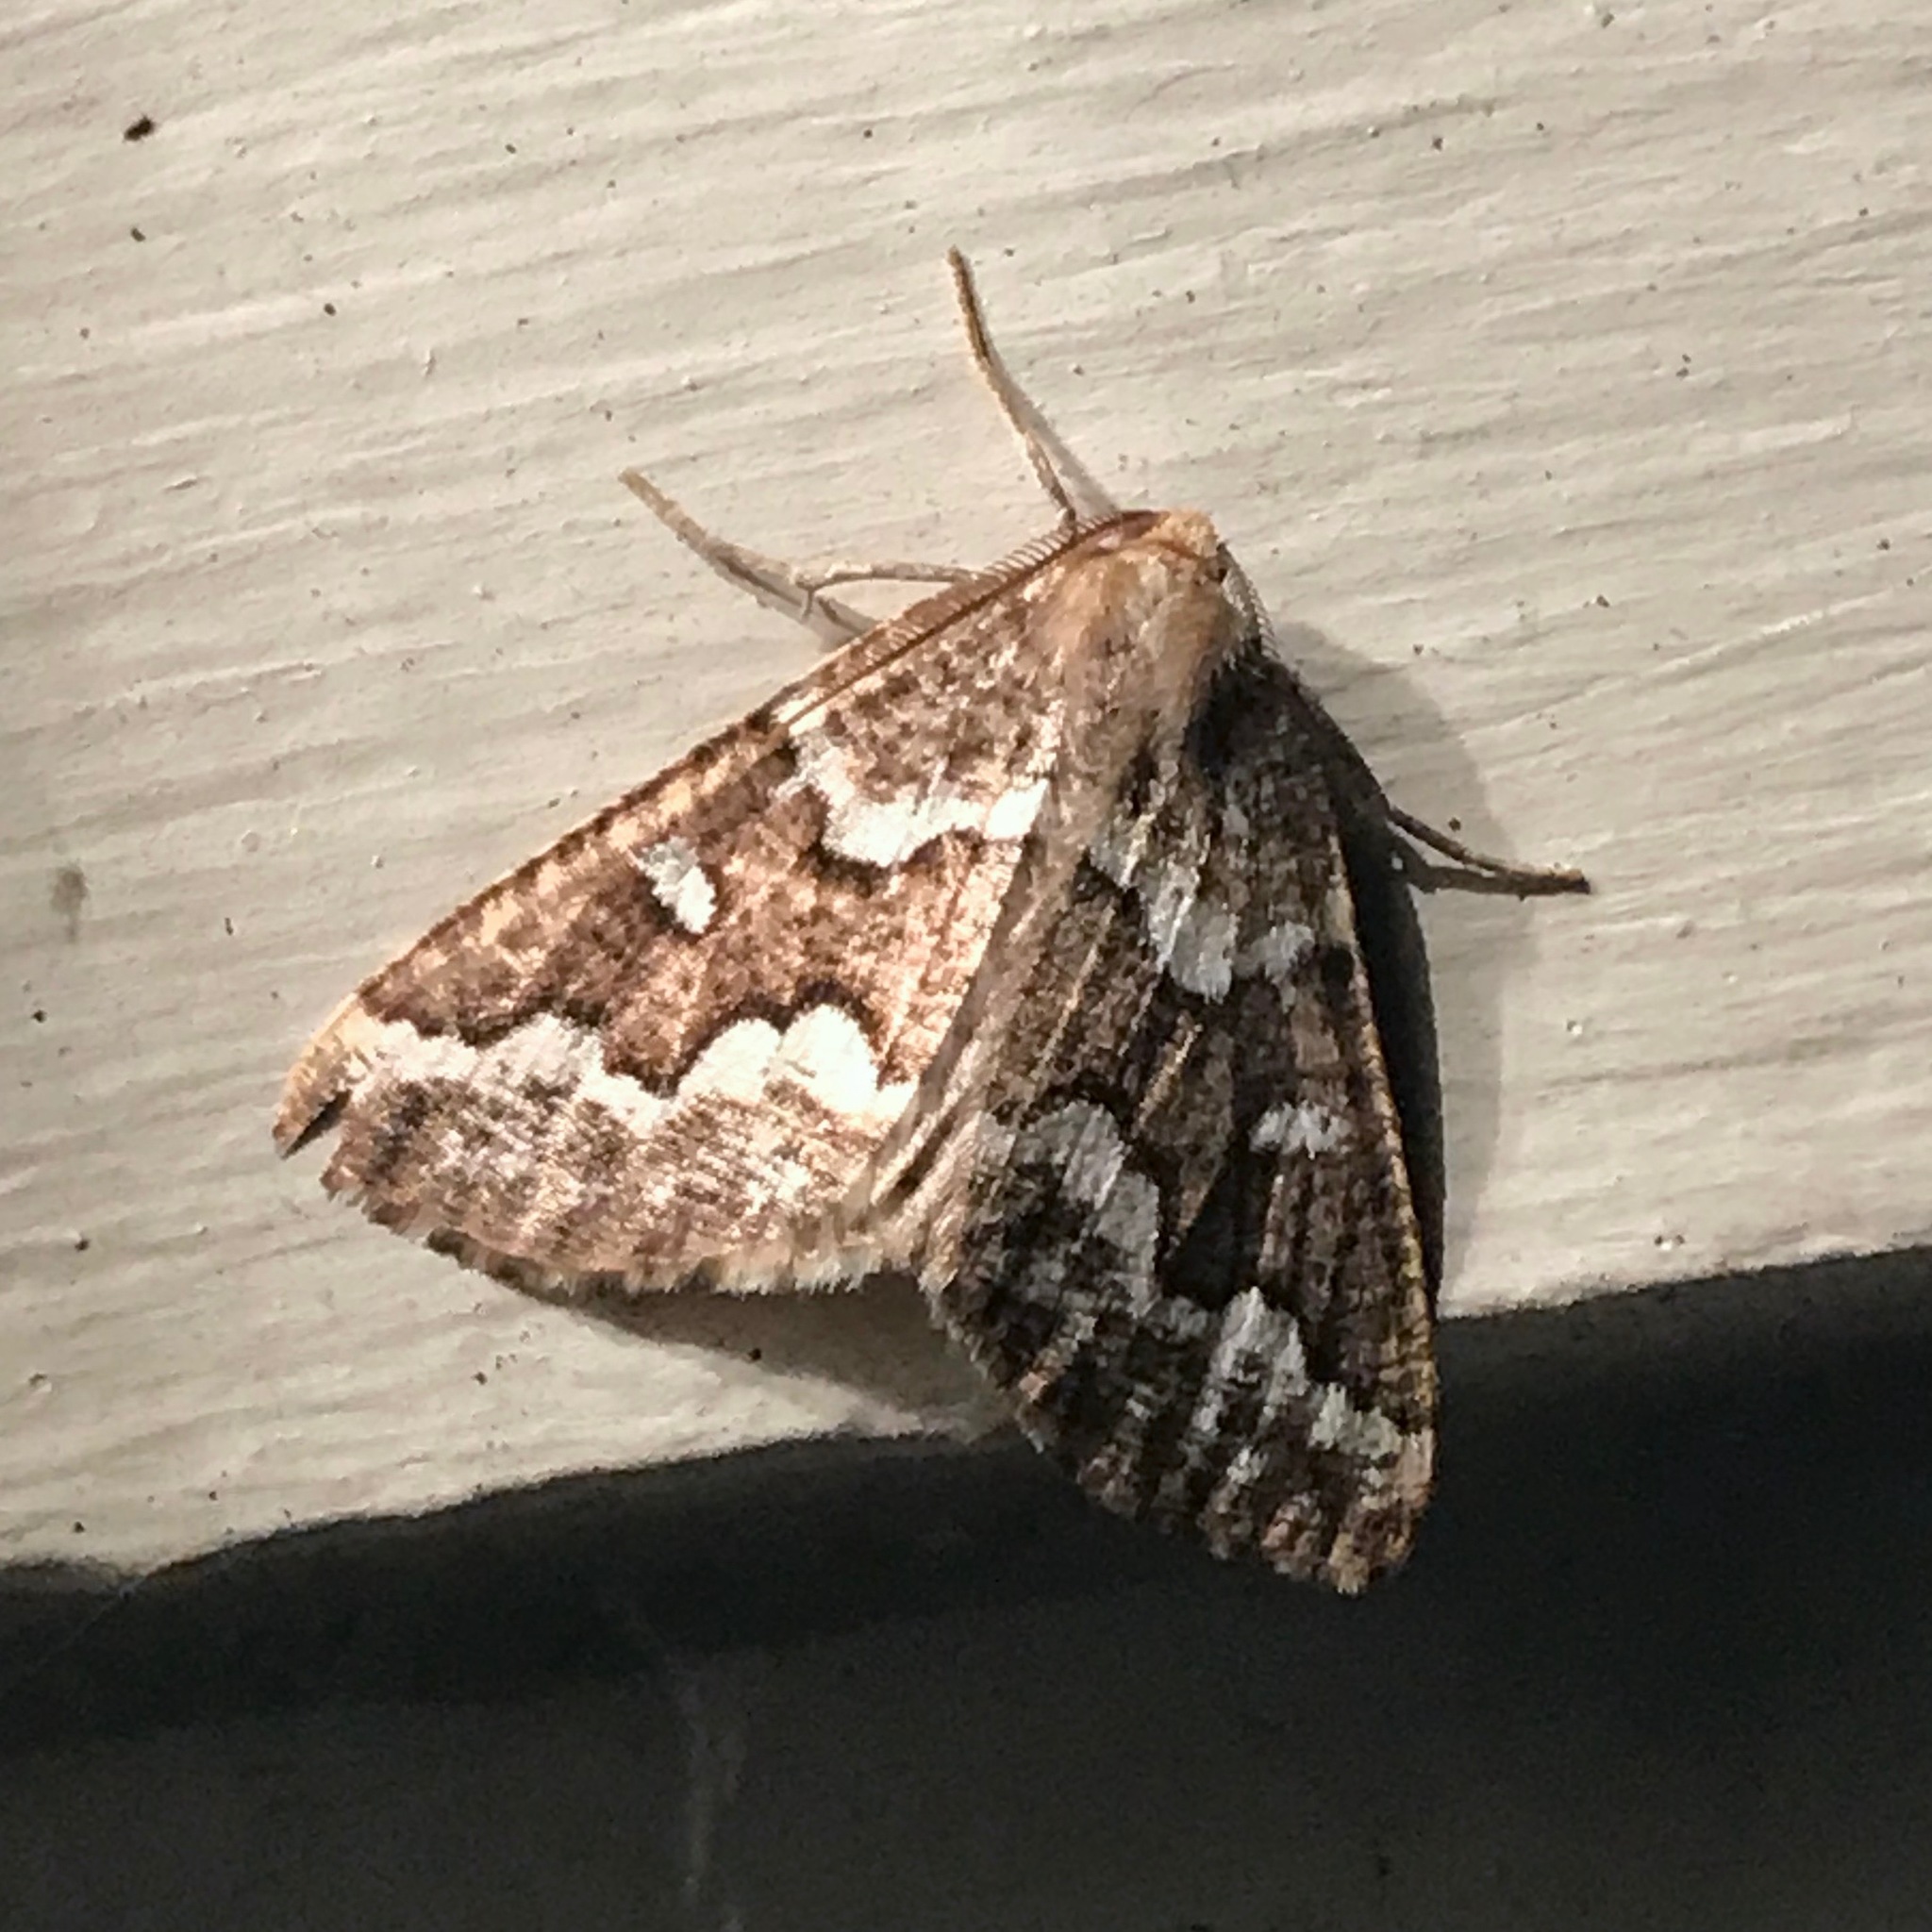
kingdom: Animalia
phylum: Arthropoda
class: Insecta
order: Lepidoptera
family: Geometridae
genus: Caripeta
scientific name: Caripeta divisata
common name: Gray spruce looper
